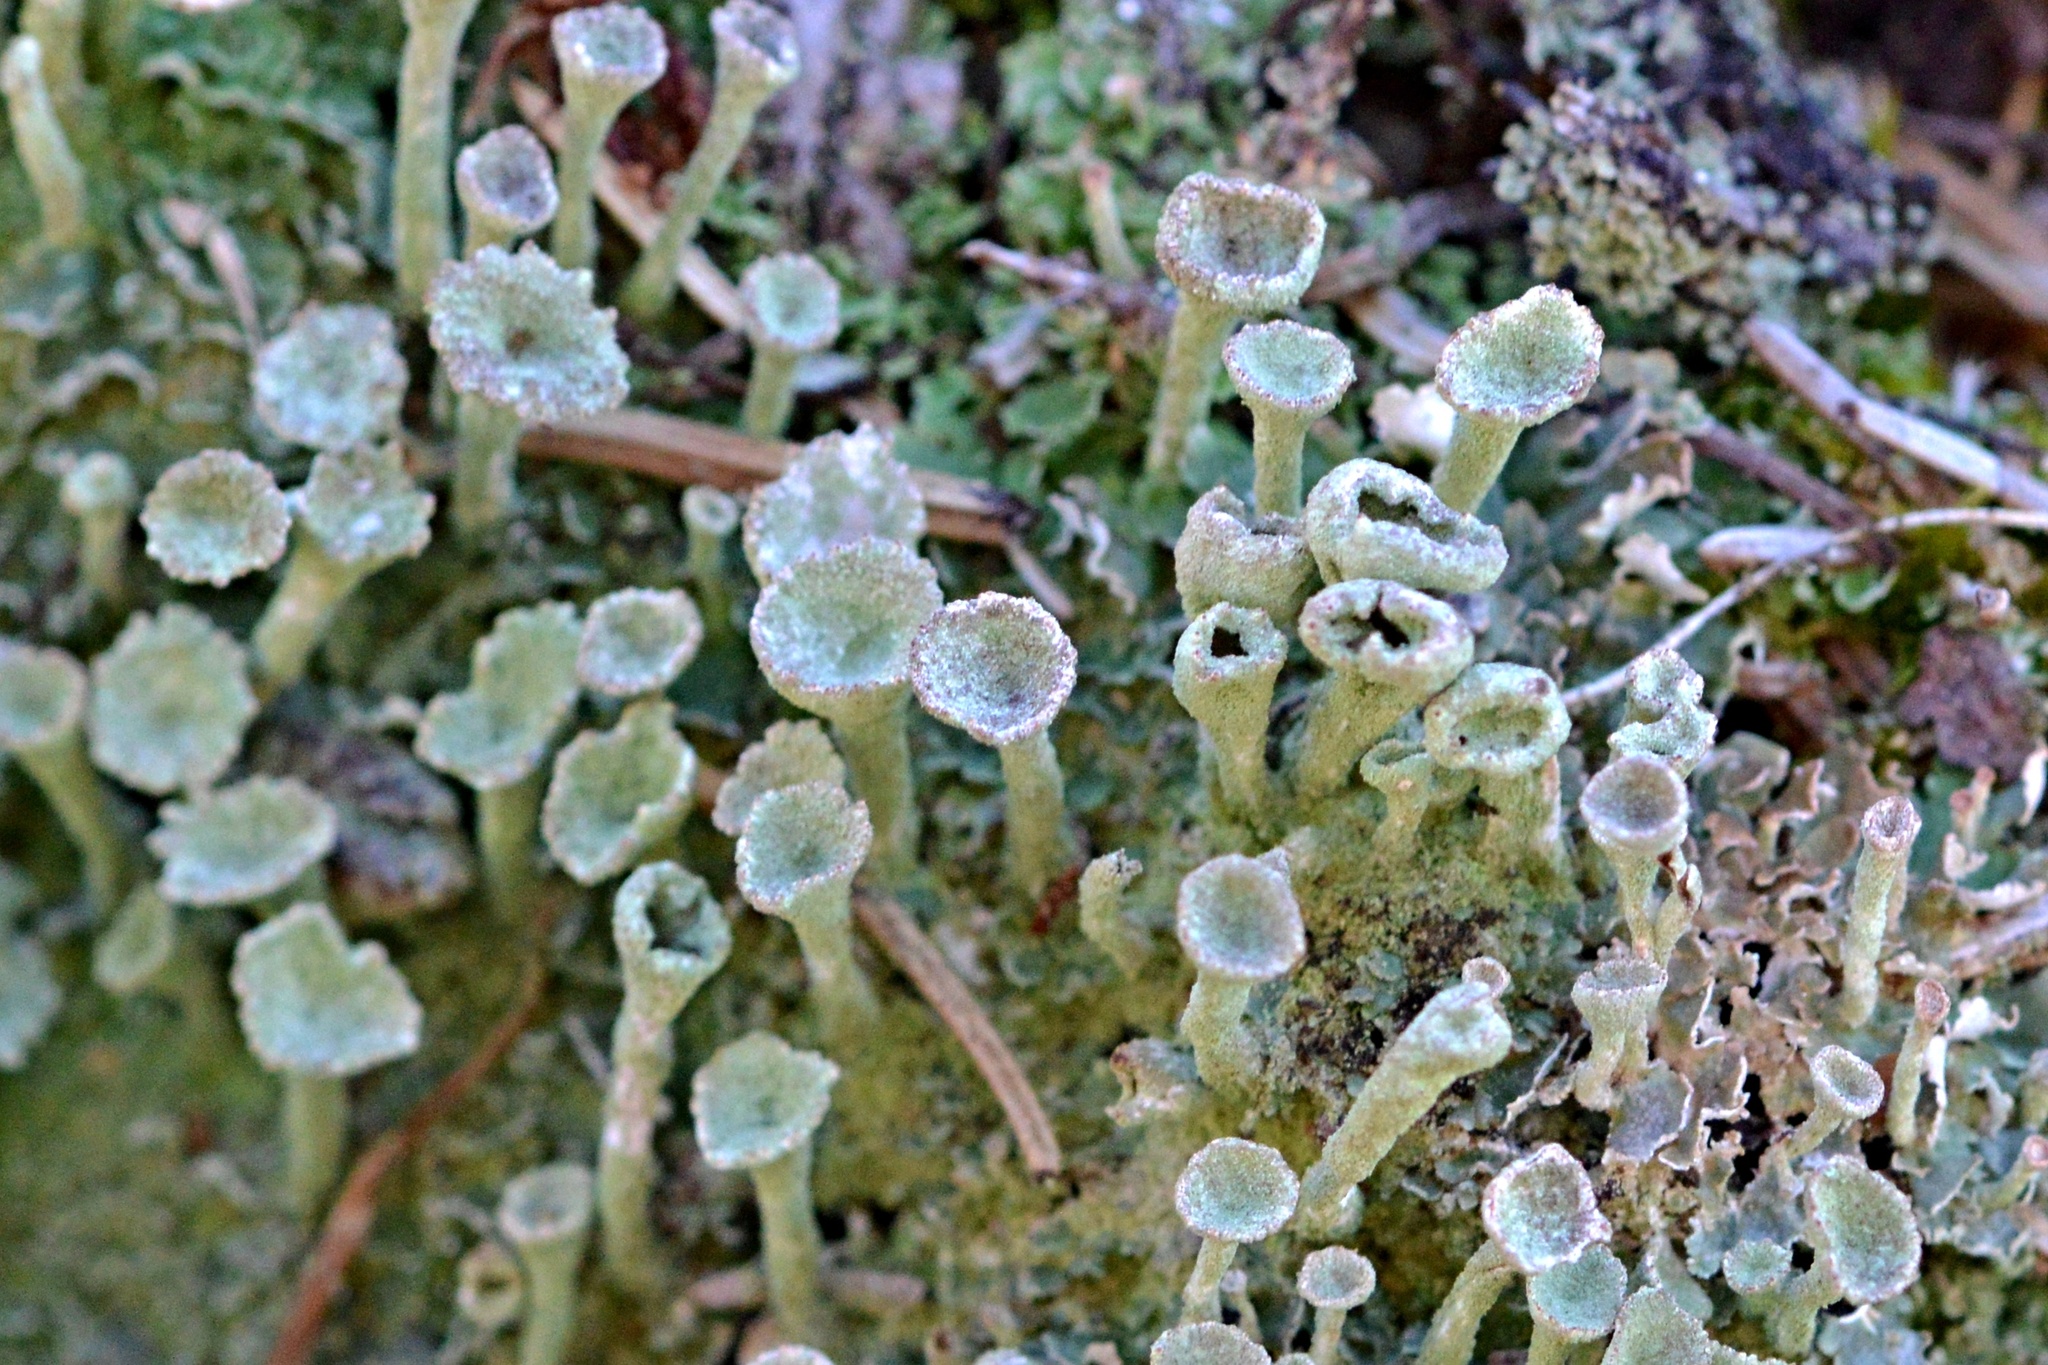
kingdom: Fungi
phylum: Ascomycota
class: Lecanoromycetes
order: Lecanorales
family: Cladoniaceae
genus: Cladonia
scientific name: Cladonia fimbriata
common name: Powdered trumpet lichen
